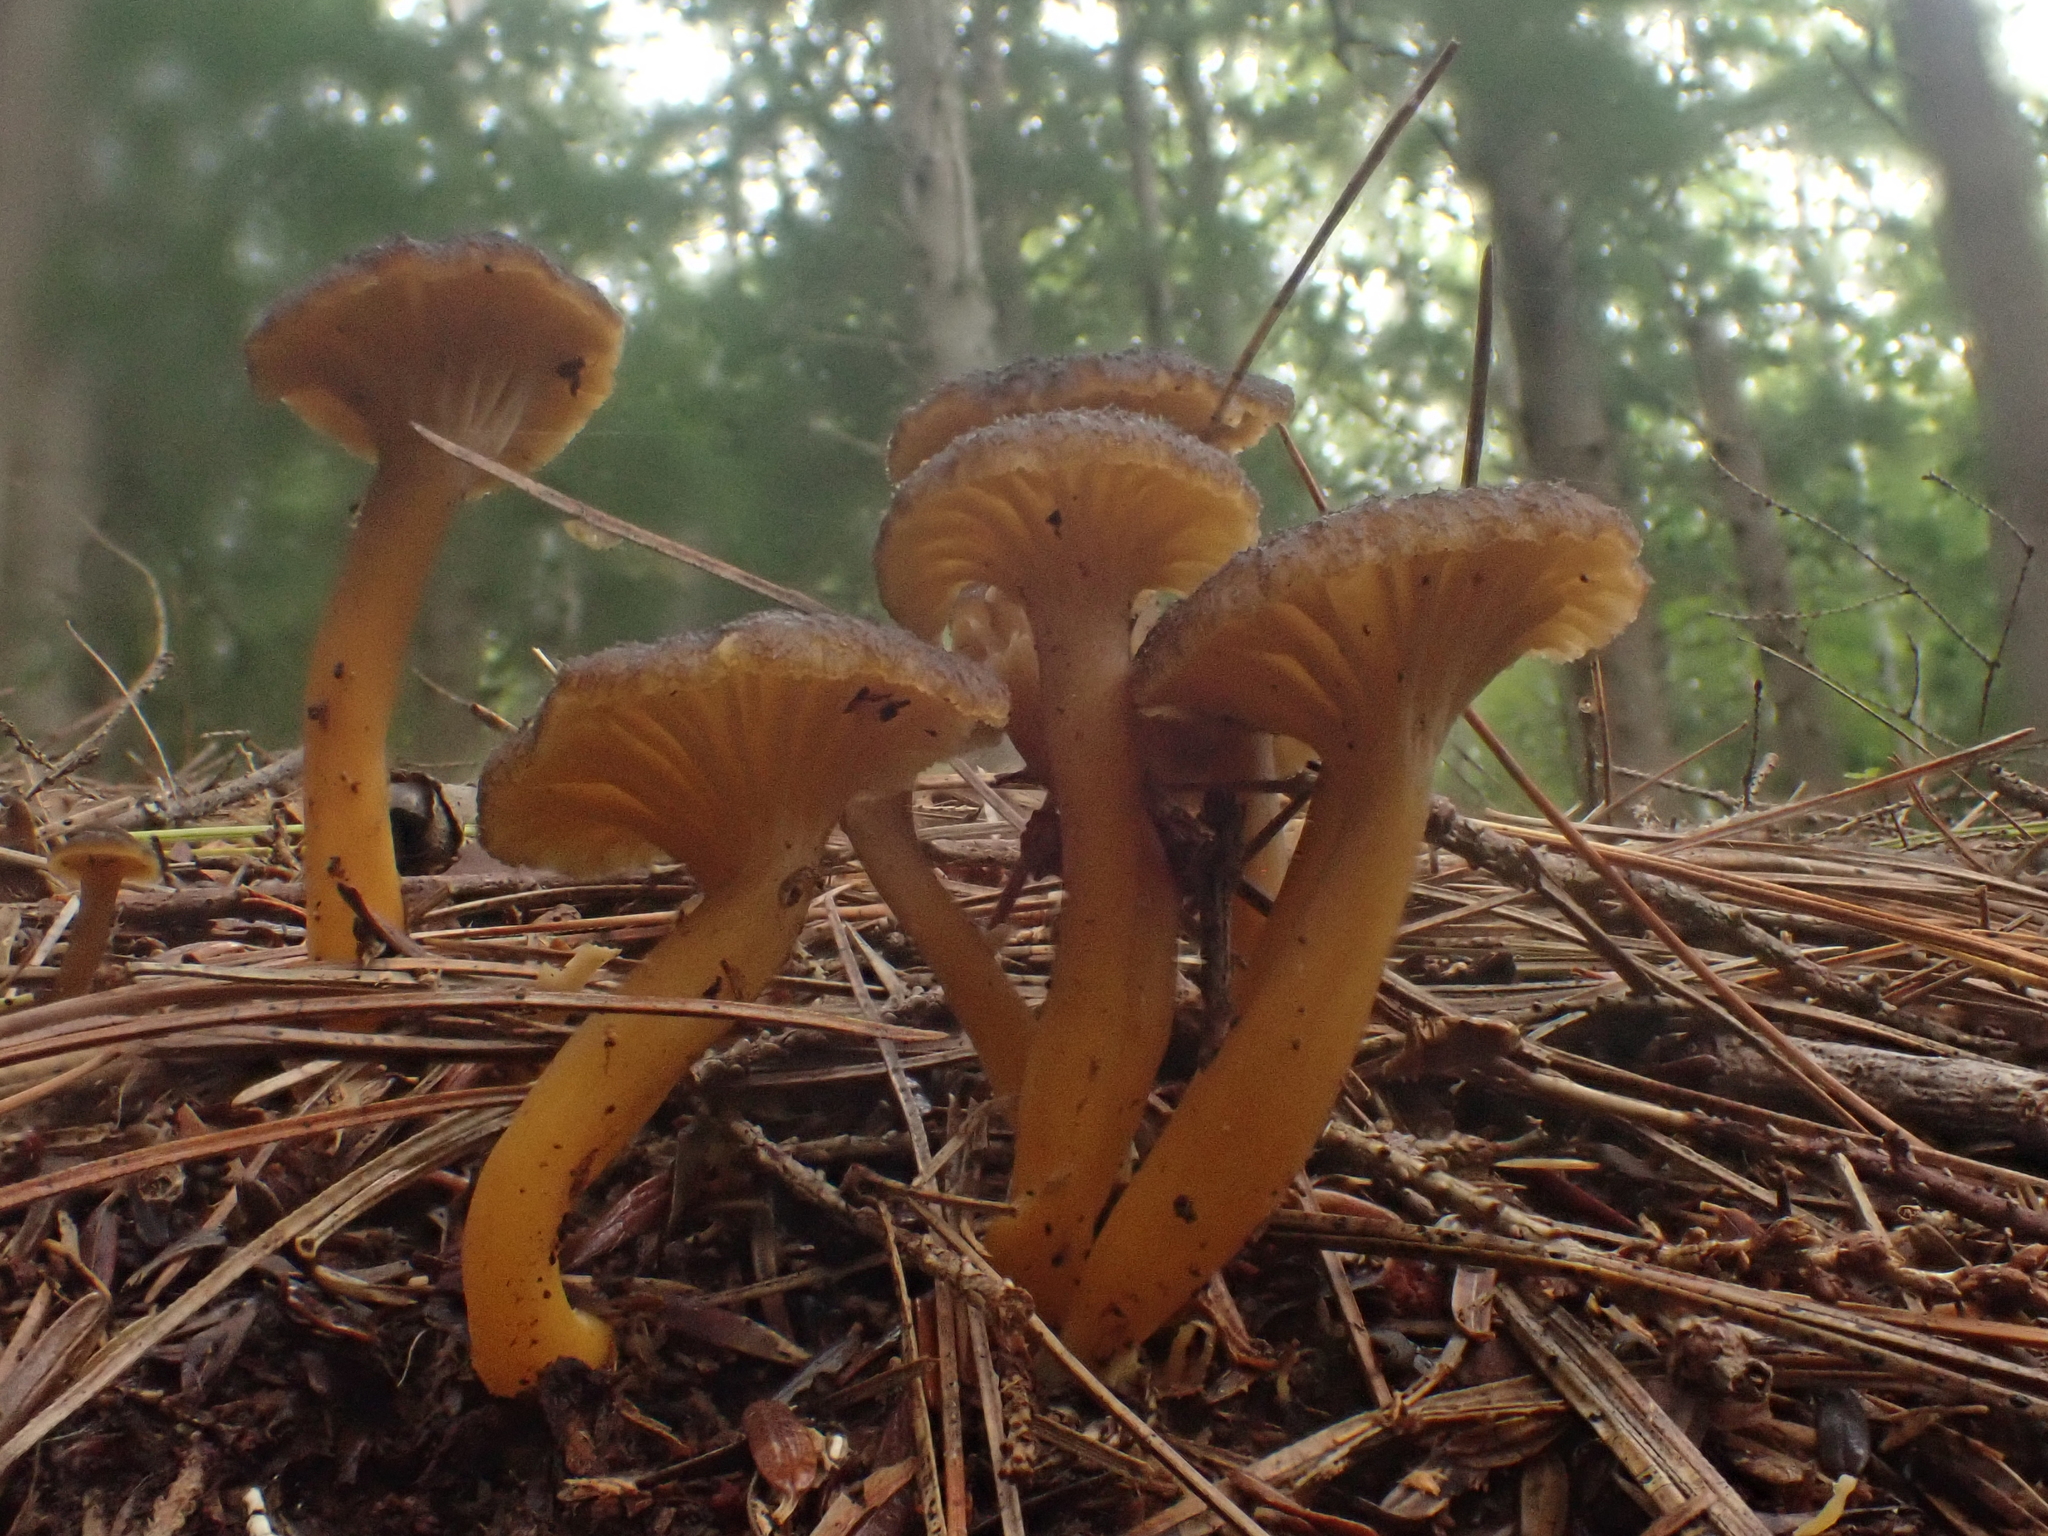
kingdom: Fungi
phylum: Basidiomycota
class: Agaricomycetes
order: Cantharellales
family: Hydnaceae
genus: Craterellus
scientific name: Craterellus tubaeformis
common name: Yellowfoot
